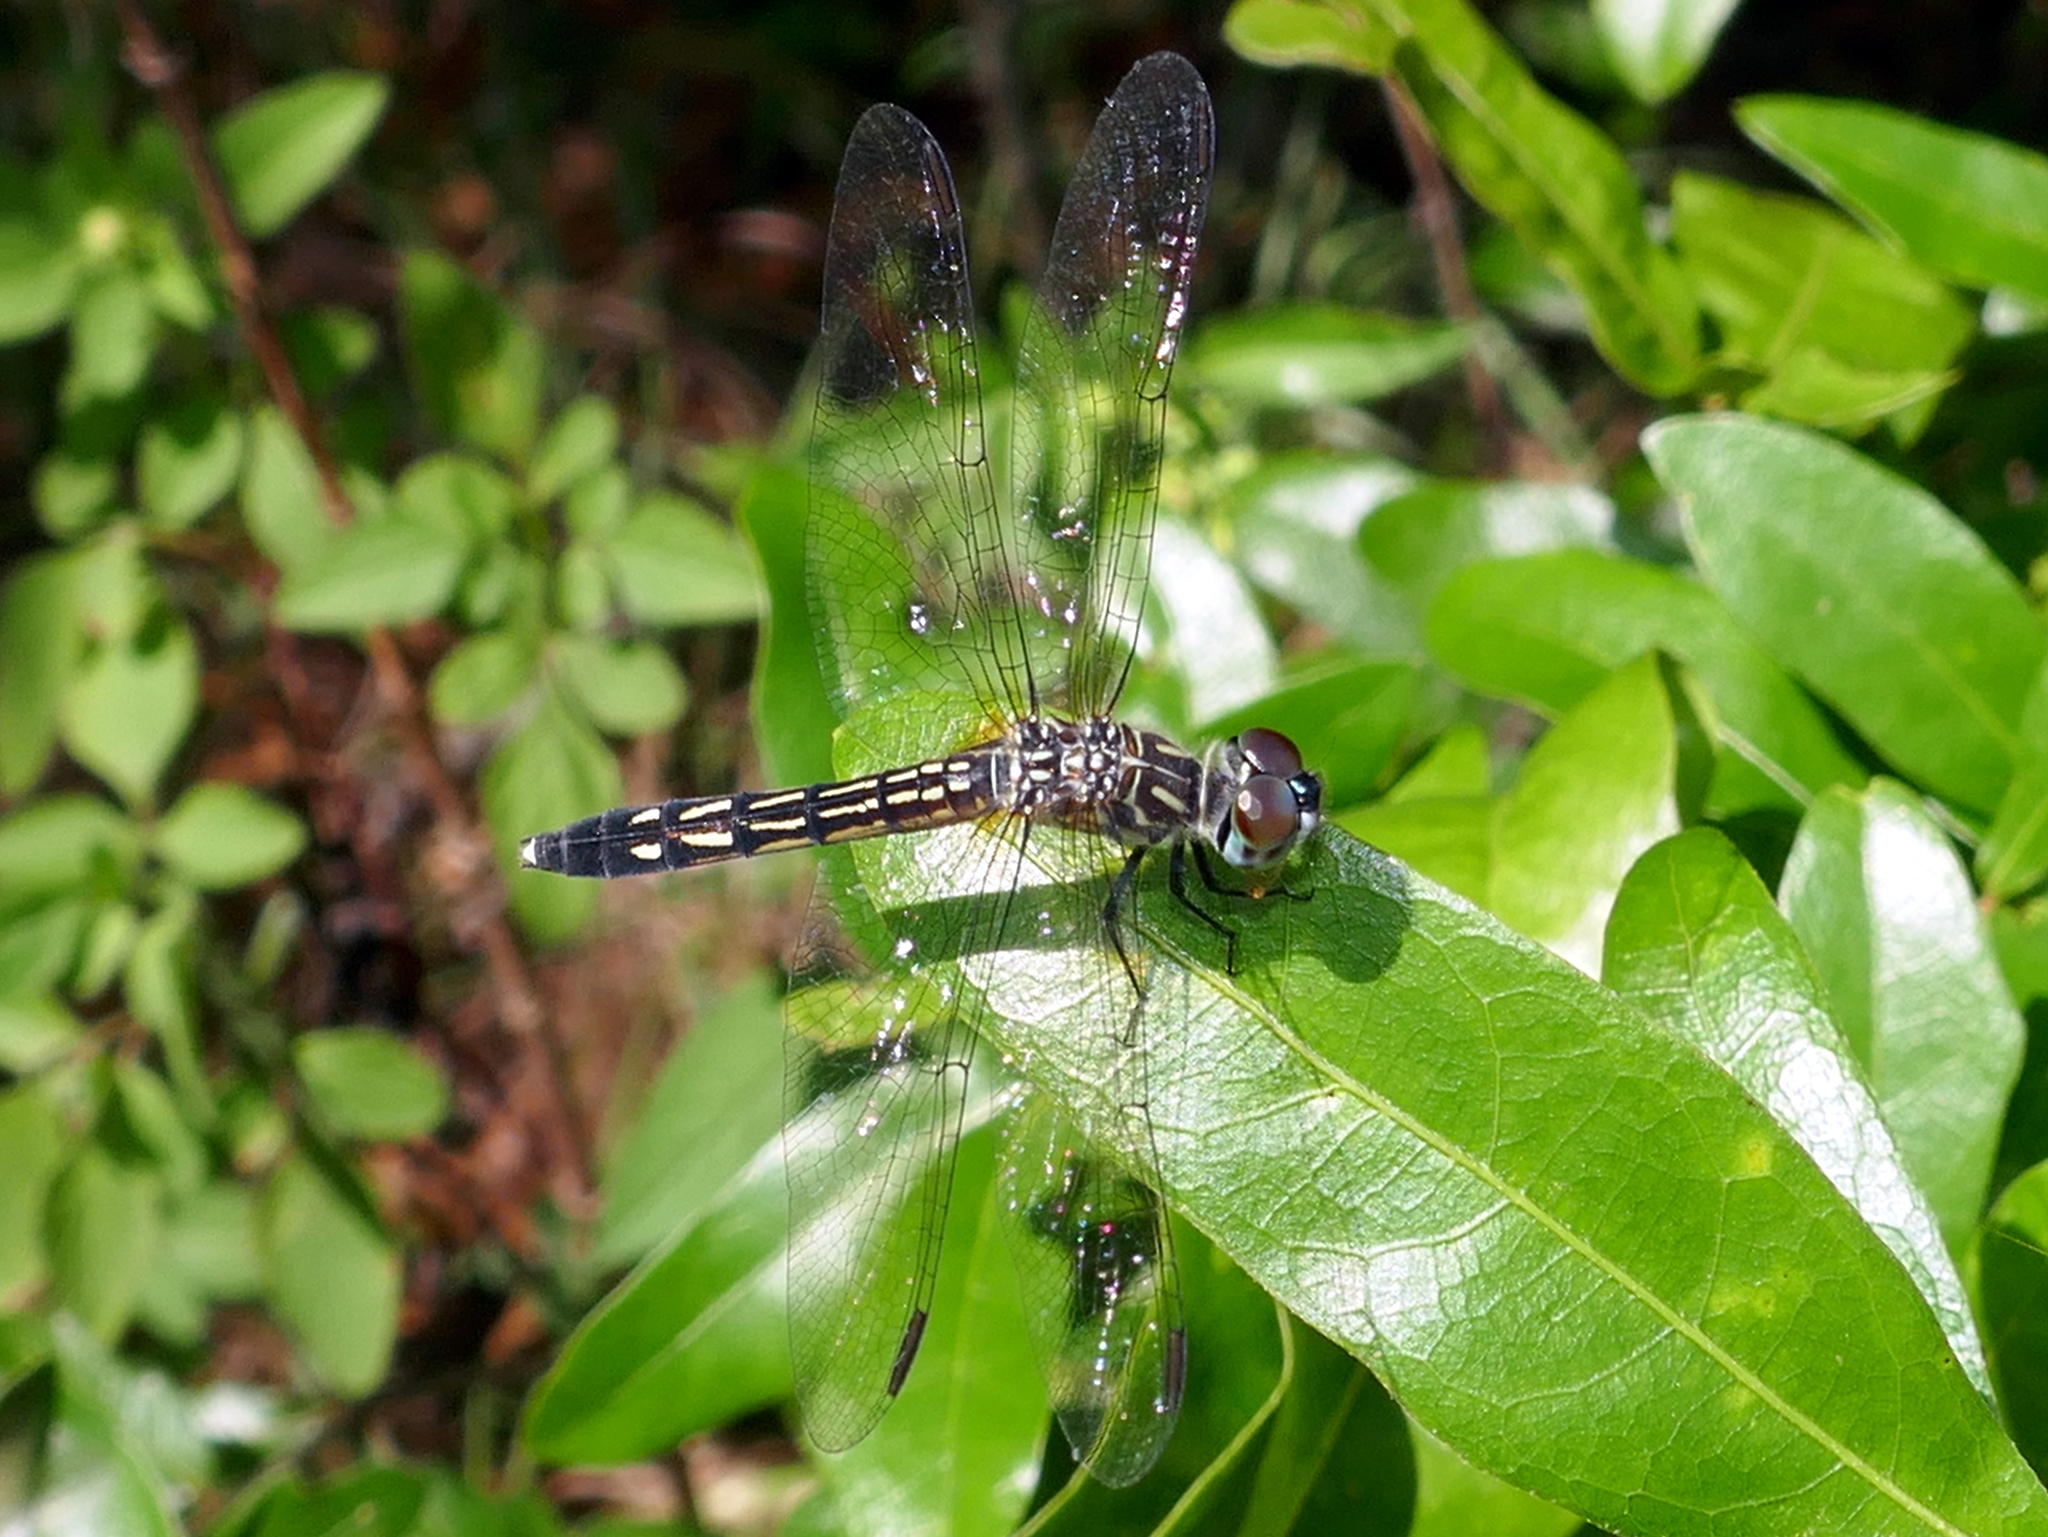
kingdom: Animalia
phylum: Arthropoda
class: Insecta
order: Odonata
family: Libellulidae
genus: Pachydiplax
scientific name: Pachydiplax longipennis
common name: Blue dasher
